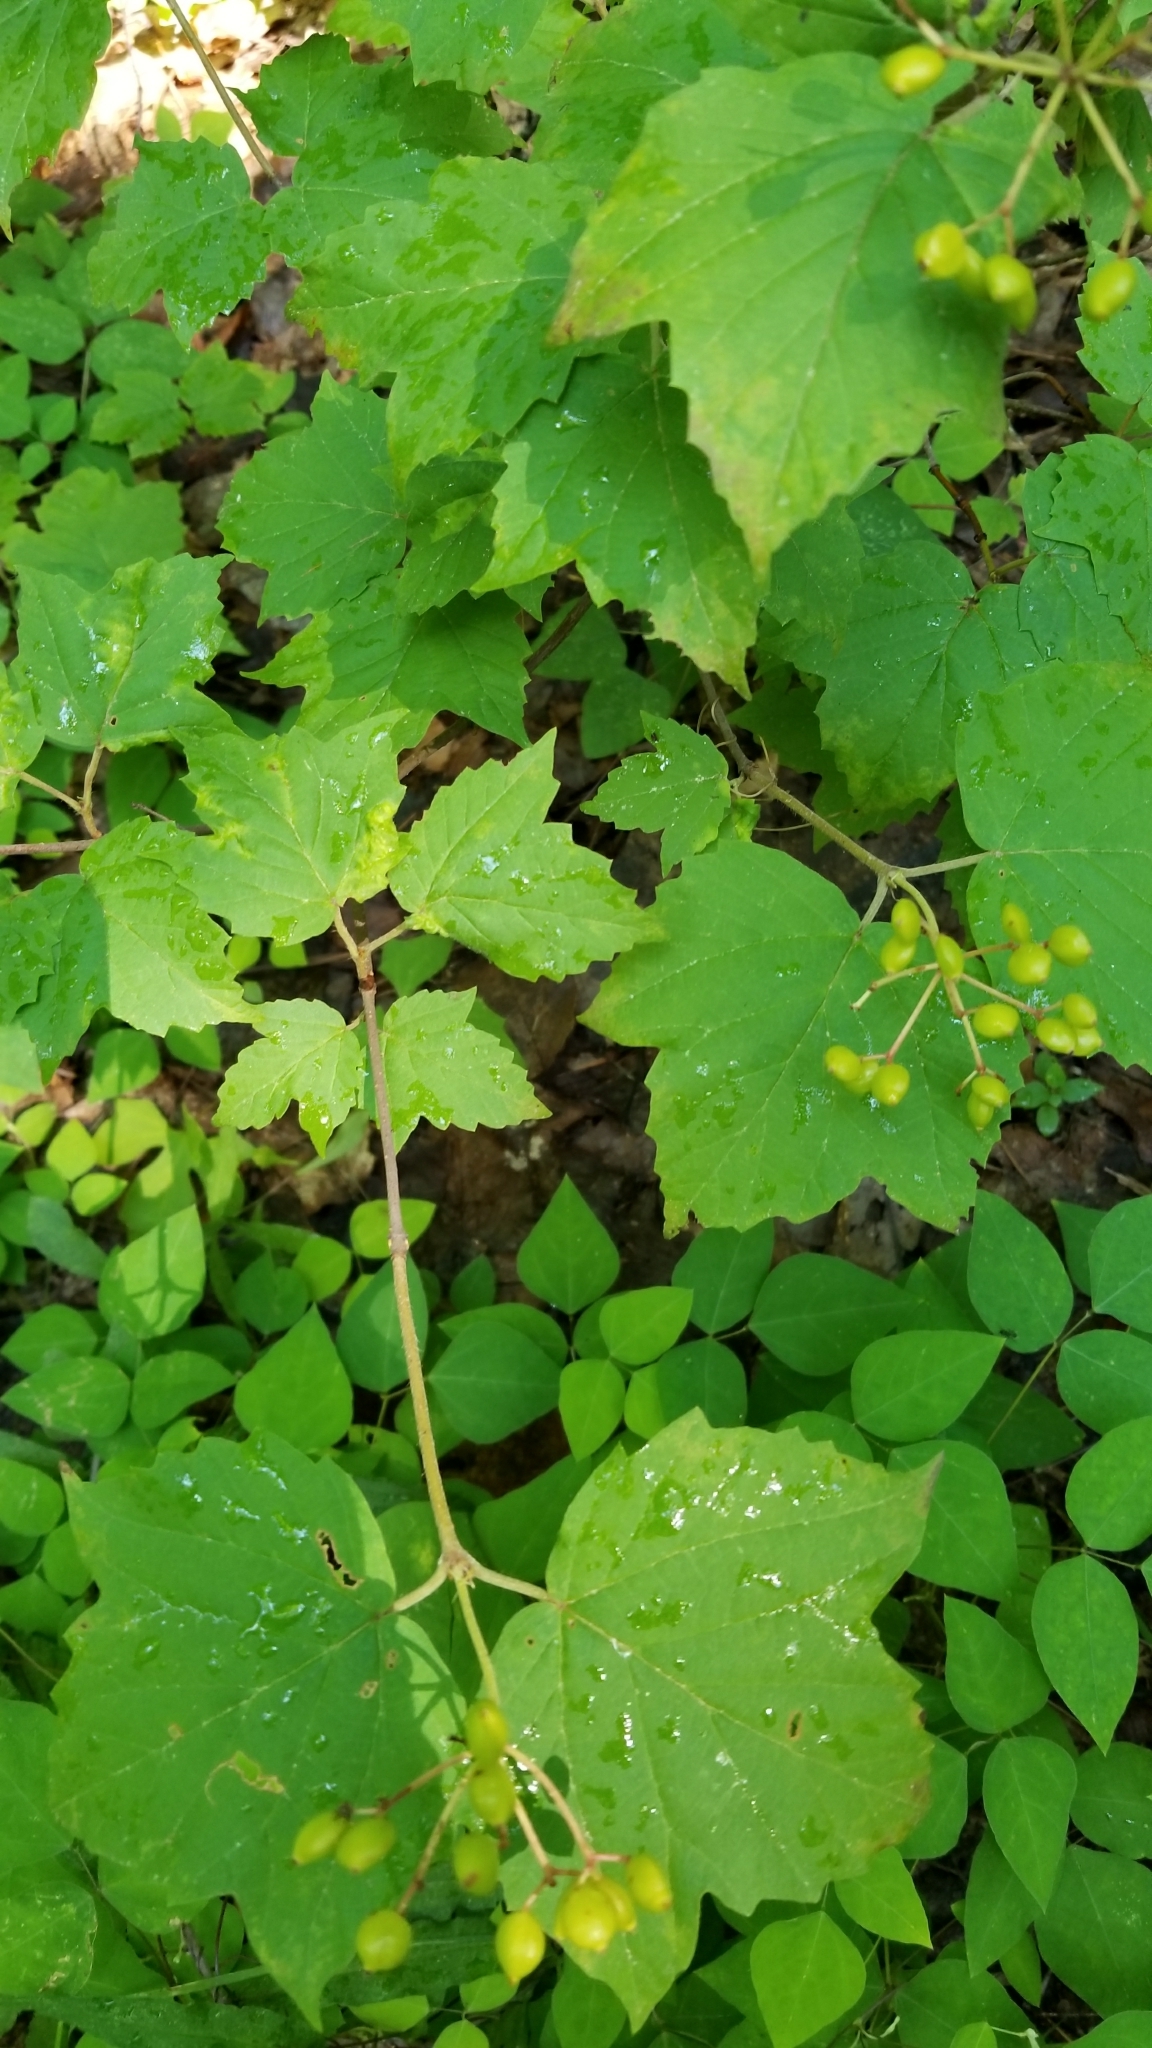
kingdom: Plantae
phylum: Tracheophyta
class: Magnoliopsida
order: Dipsacales
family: Viburnaceae
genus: Viburnum
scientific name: Viburnum acerifolium
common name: Dockmackie
